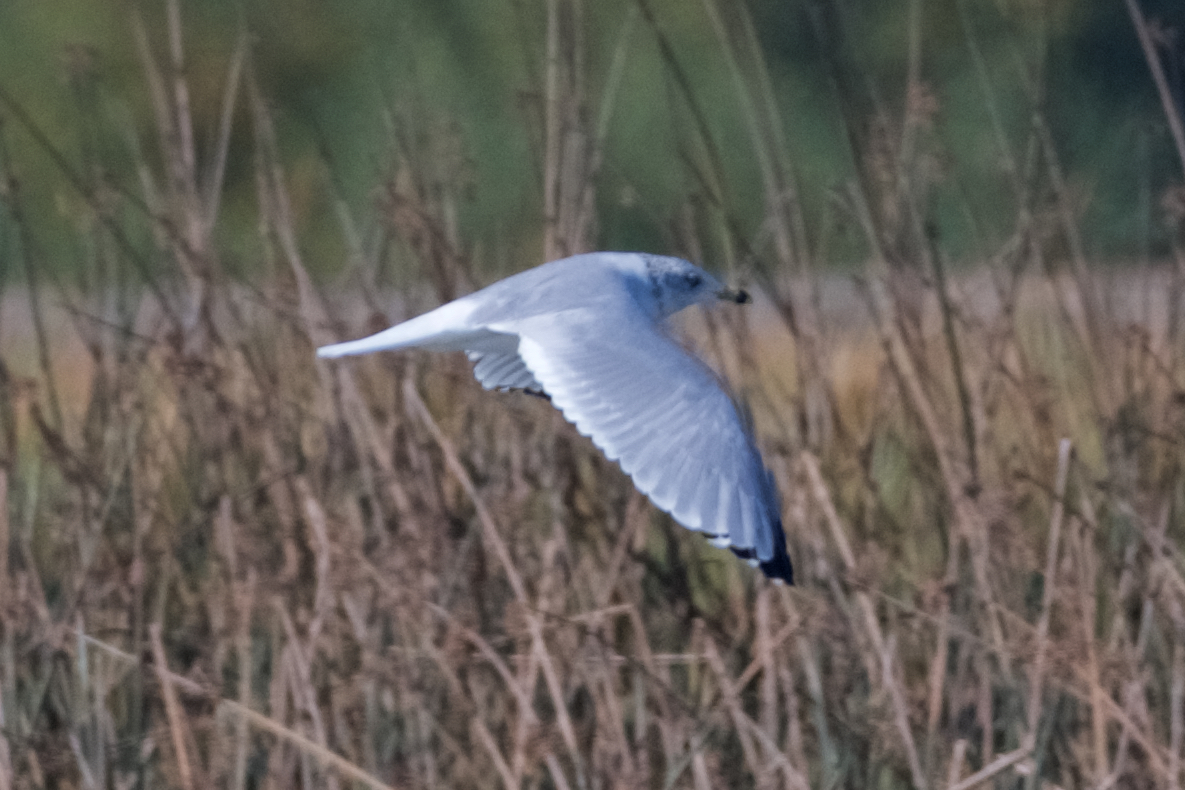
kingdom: Animalia
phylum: Chordata
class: Aves
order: Charadriiformes
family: Laridae
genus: Larus
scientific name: Larus delawarensis
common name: Ring-billed gull
